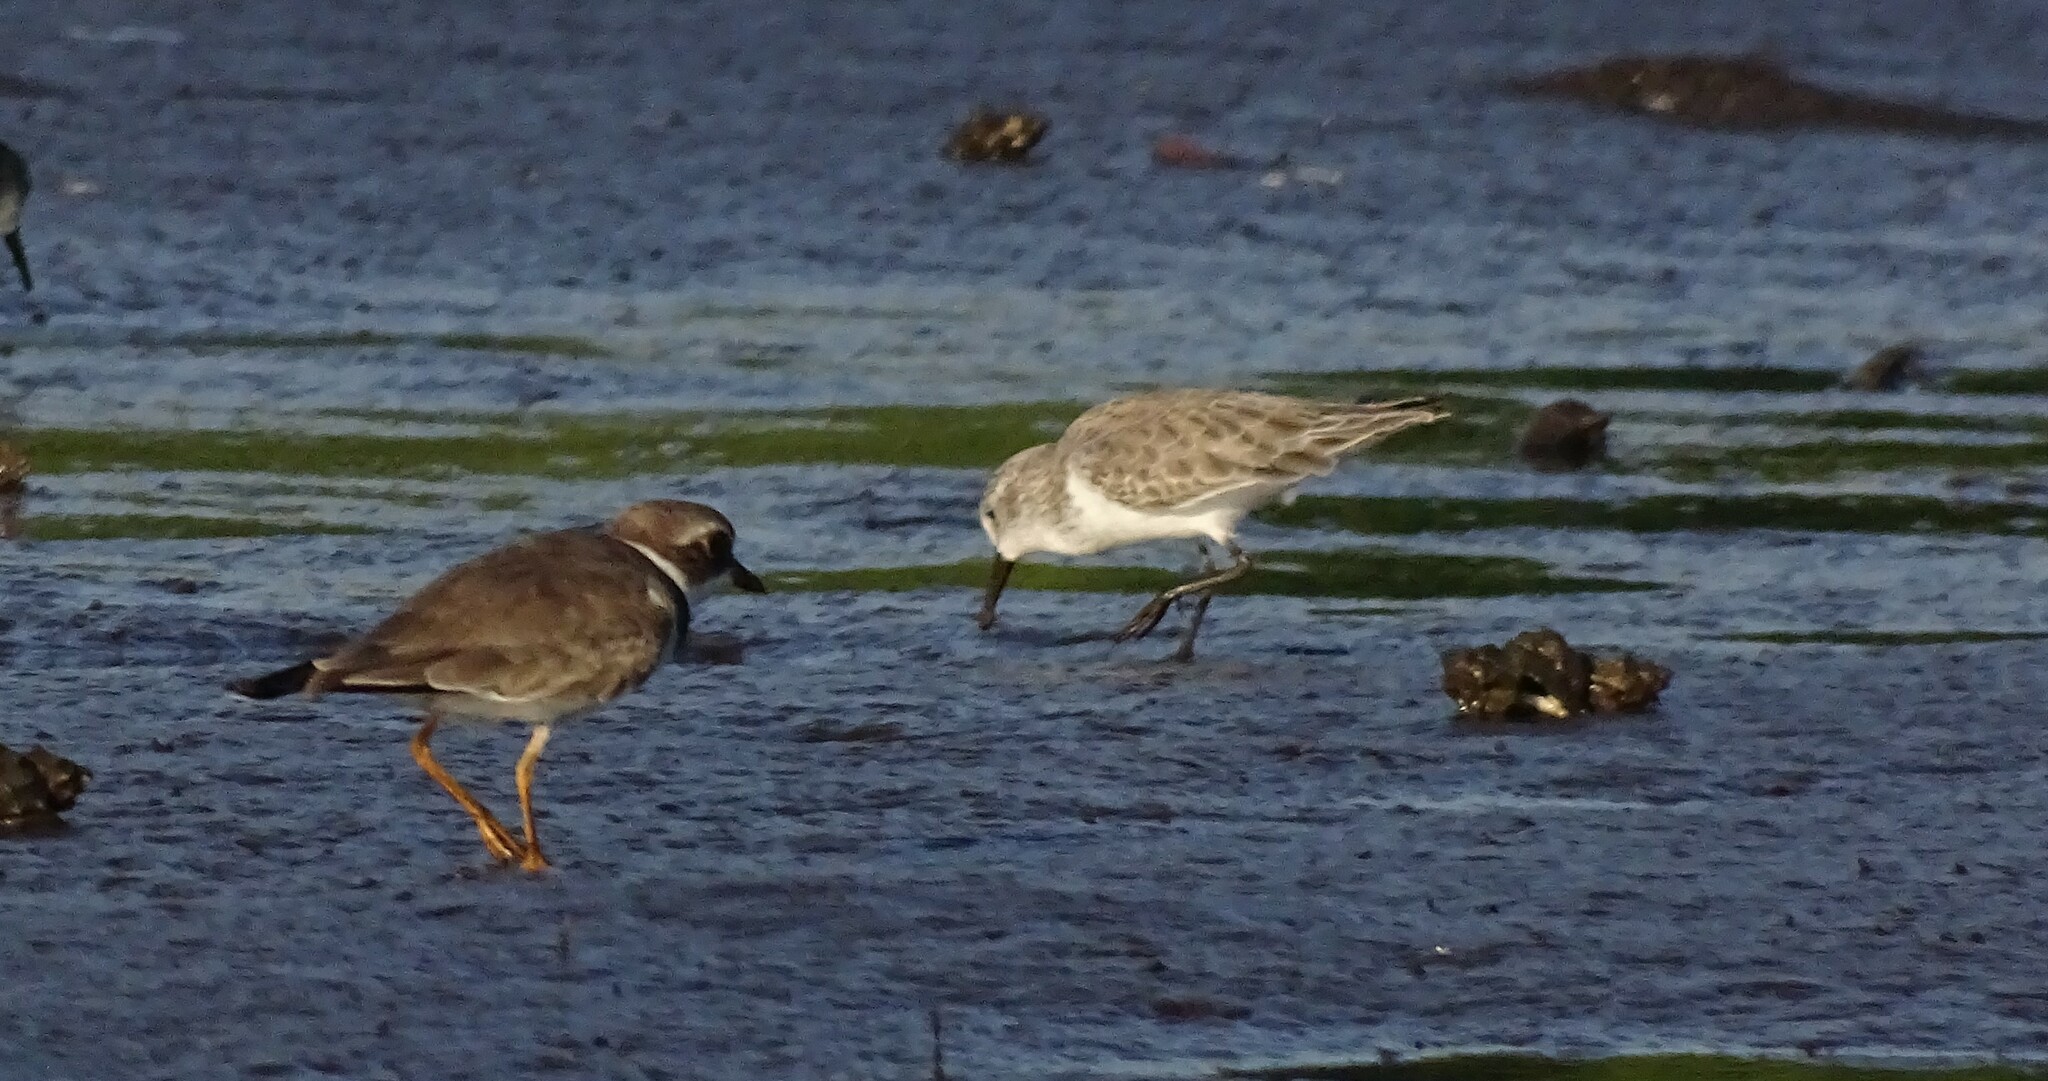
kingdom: Animalia
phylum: Chordata
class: Aves
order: Charadriiformes
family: Charadriidae
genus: Charadrius
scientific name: Charadrius semipalmatus
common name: Semipalmated plover
